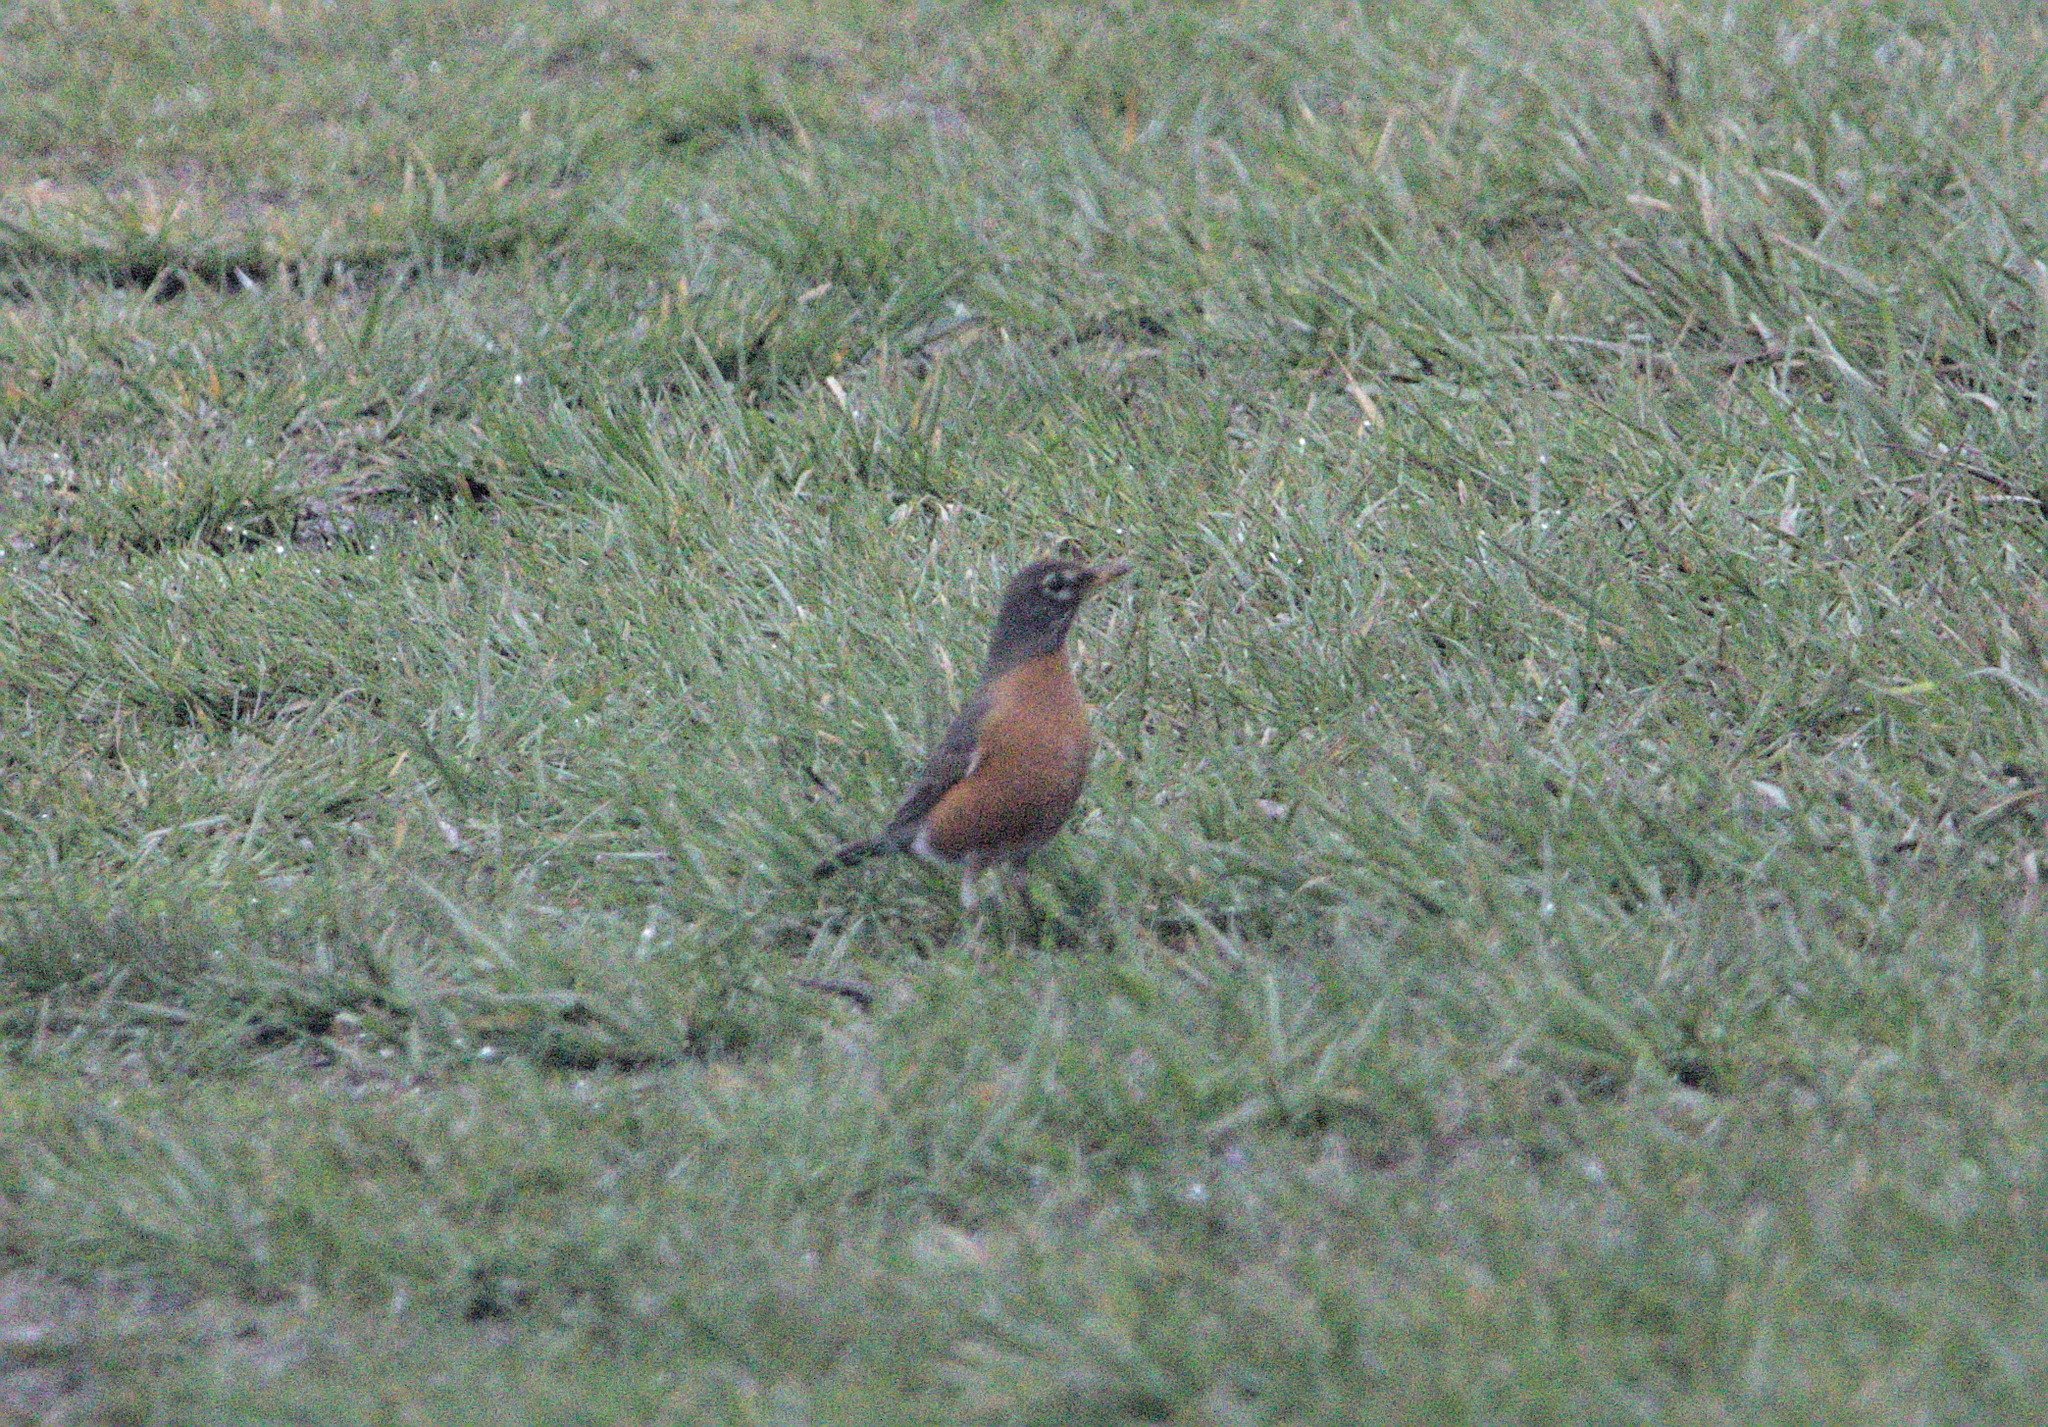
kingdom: Animalia
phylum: Chordata
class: Aves
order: Passeriformes
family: Turdidae
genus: Turdus
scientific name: Turdus migratorius
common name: American robin
